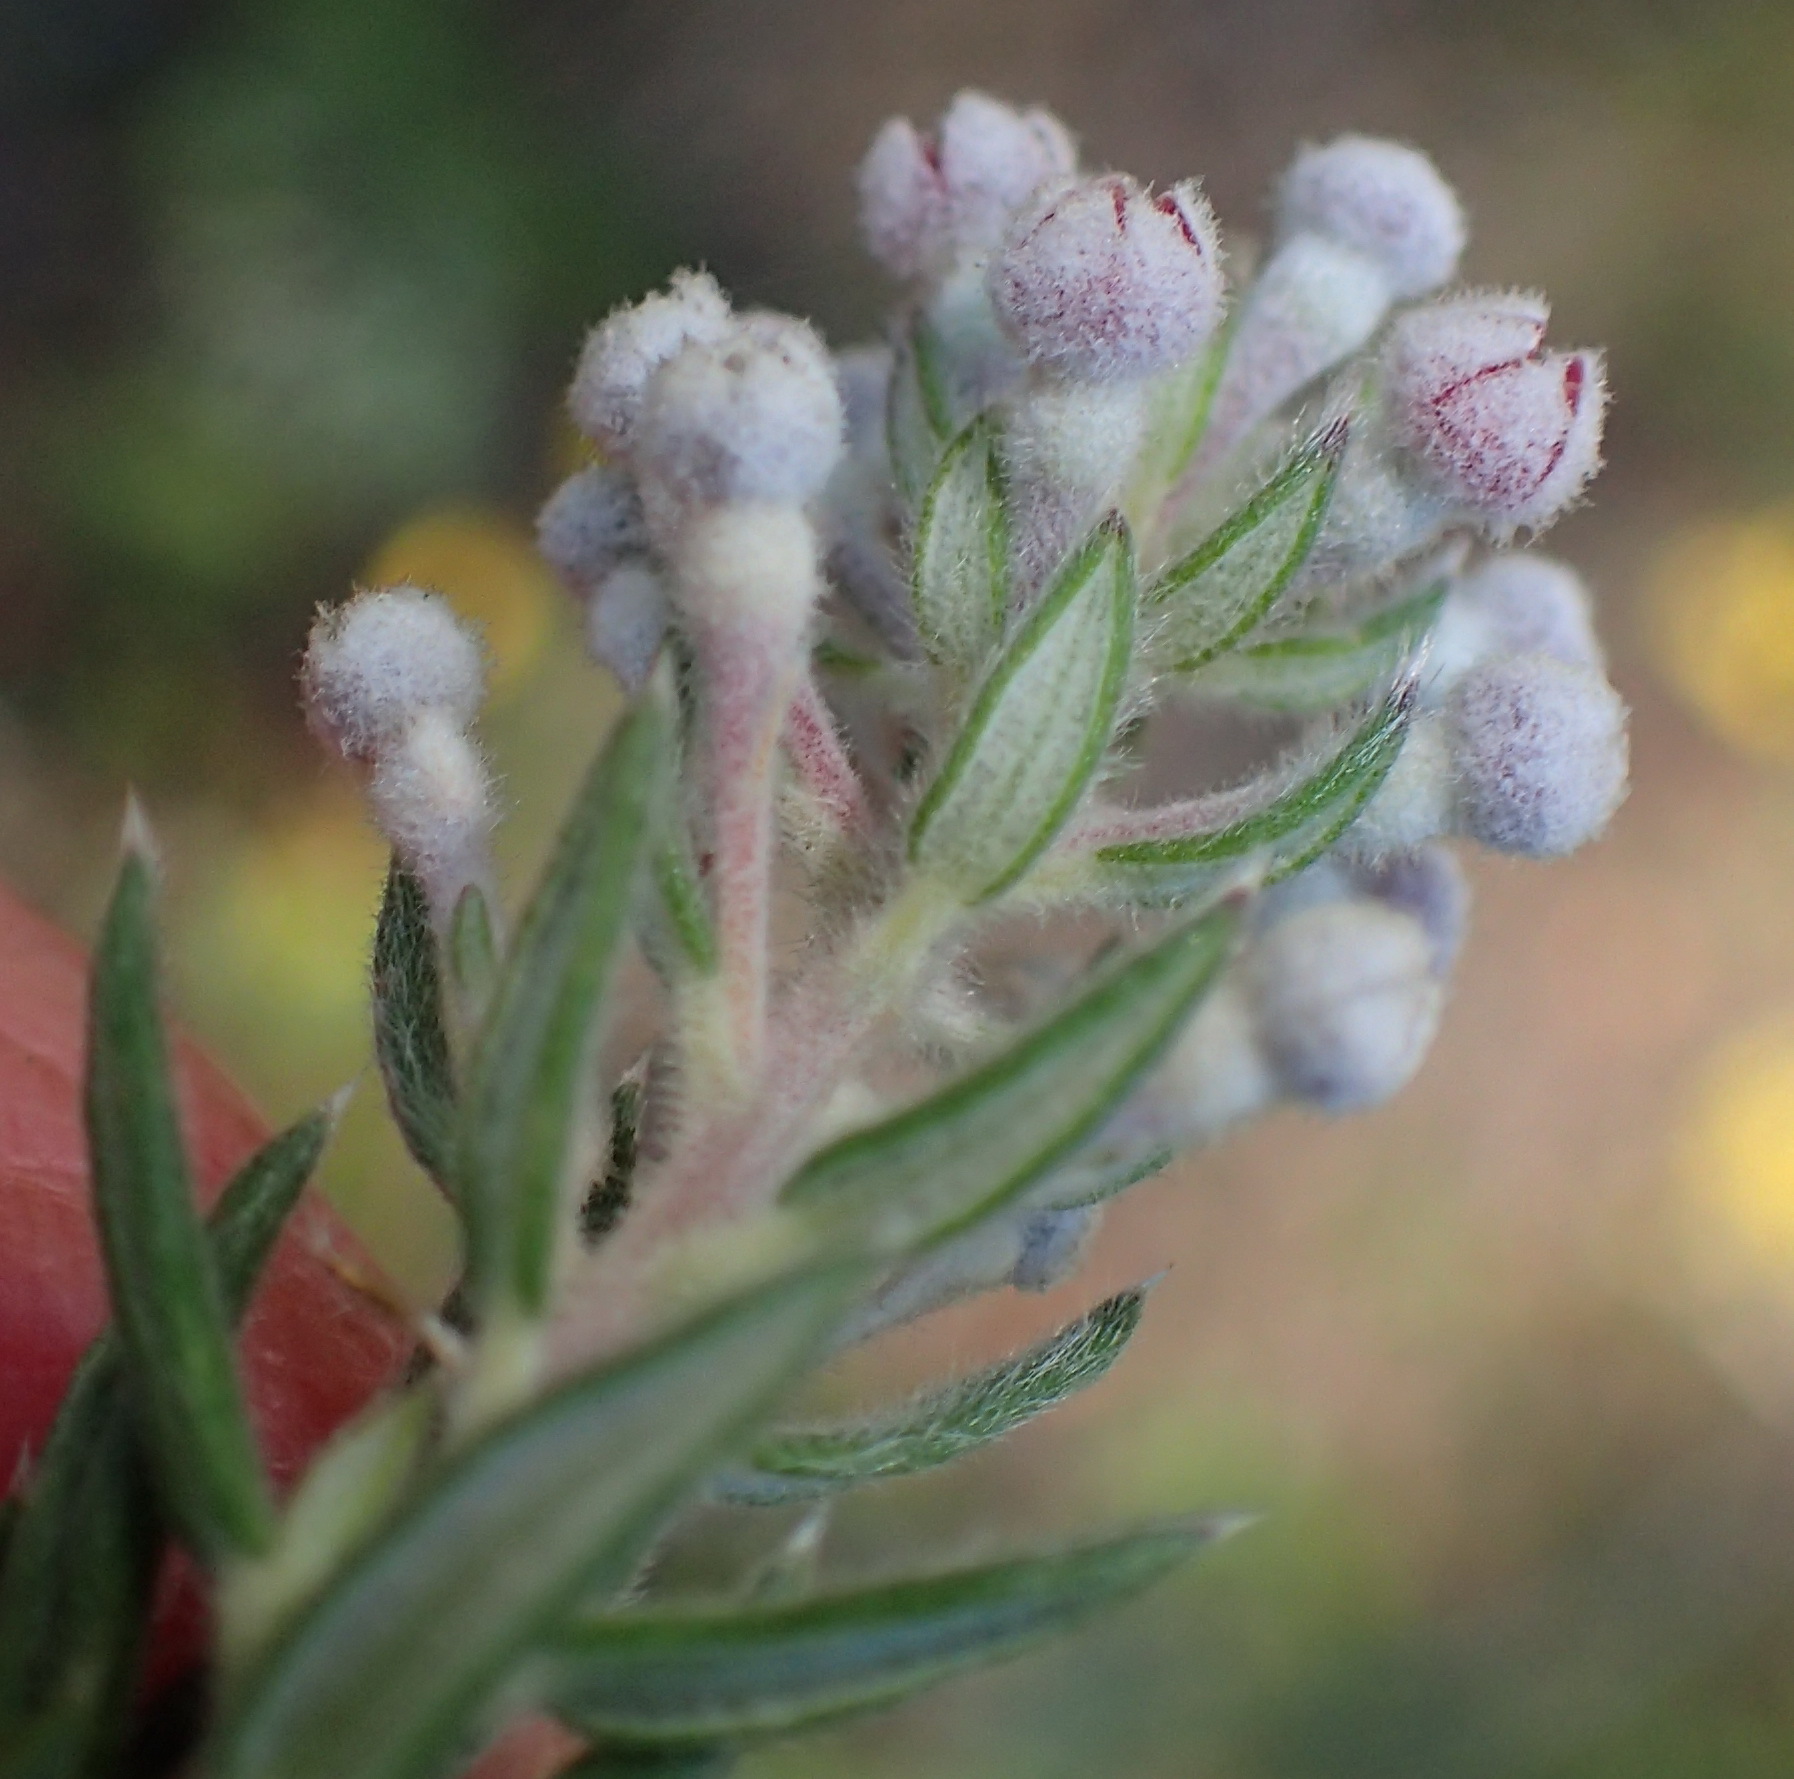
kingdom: Plantae
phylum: Tracheophyta
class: Magnoliopsida
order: Rosales
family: Rhamnaceae
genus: Phylica
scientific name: Phylica pinea
